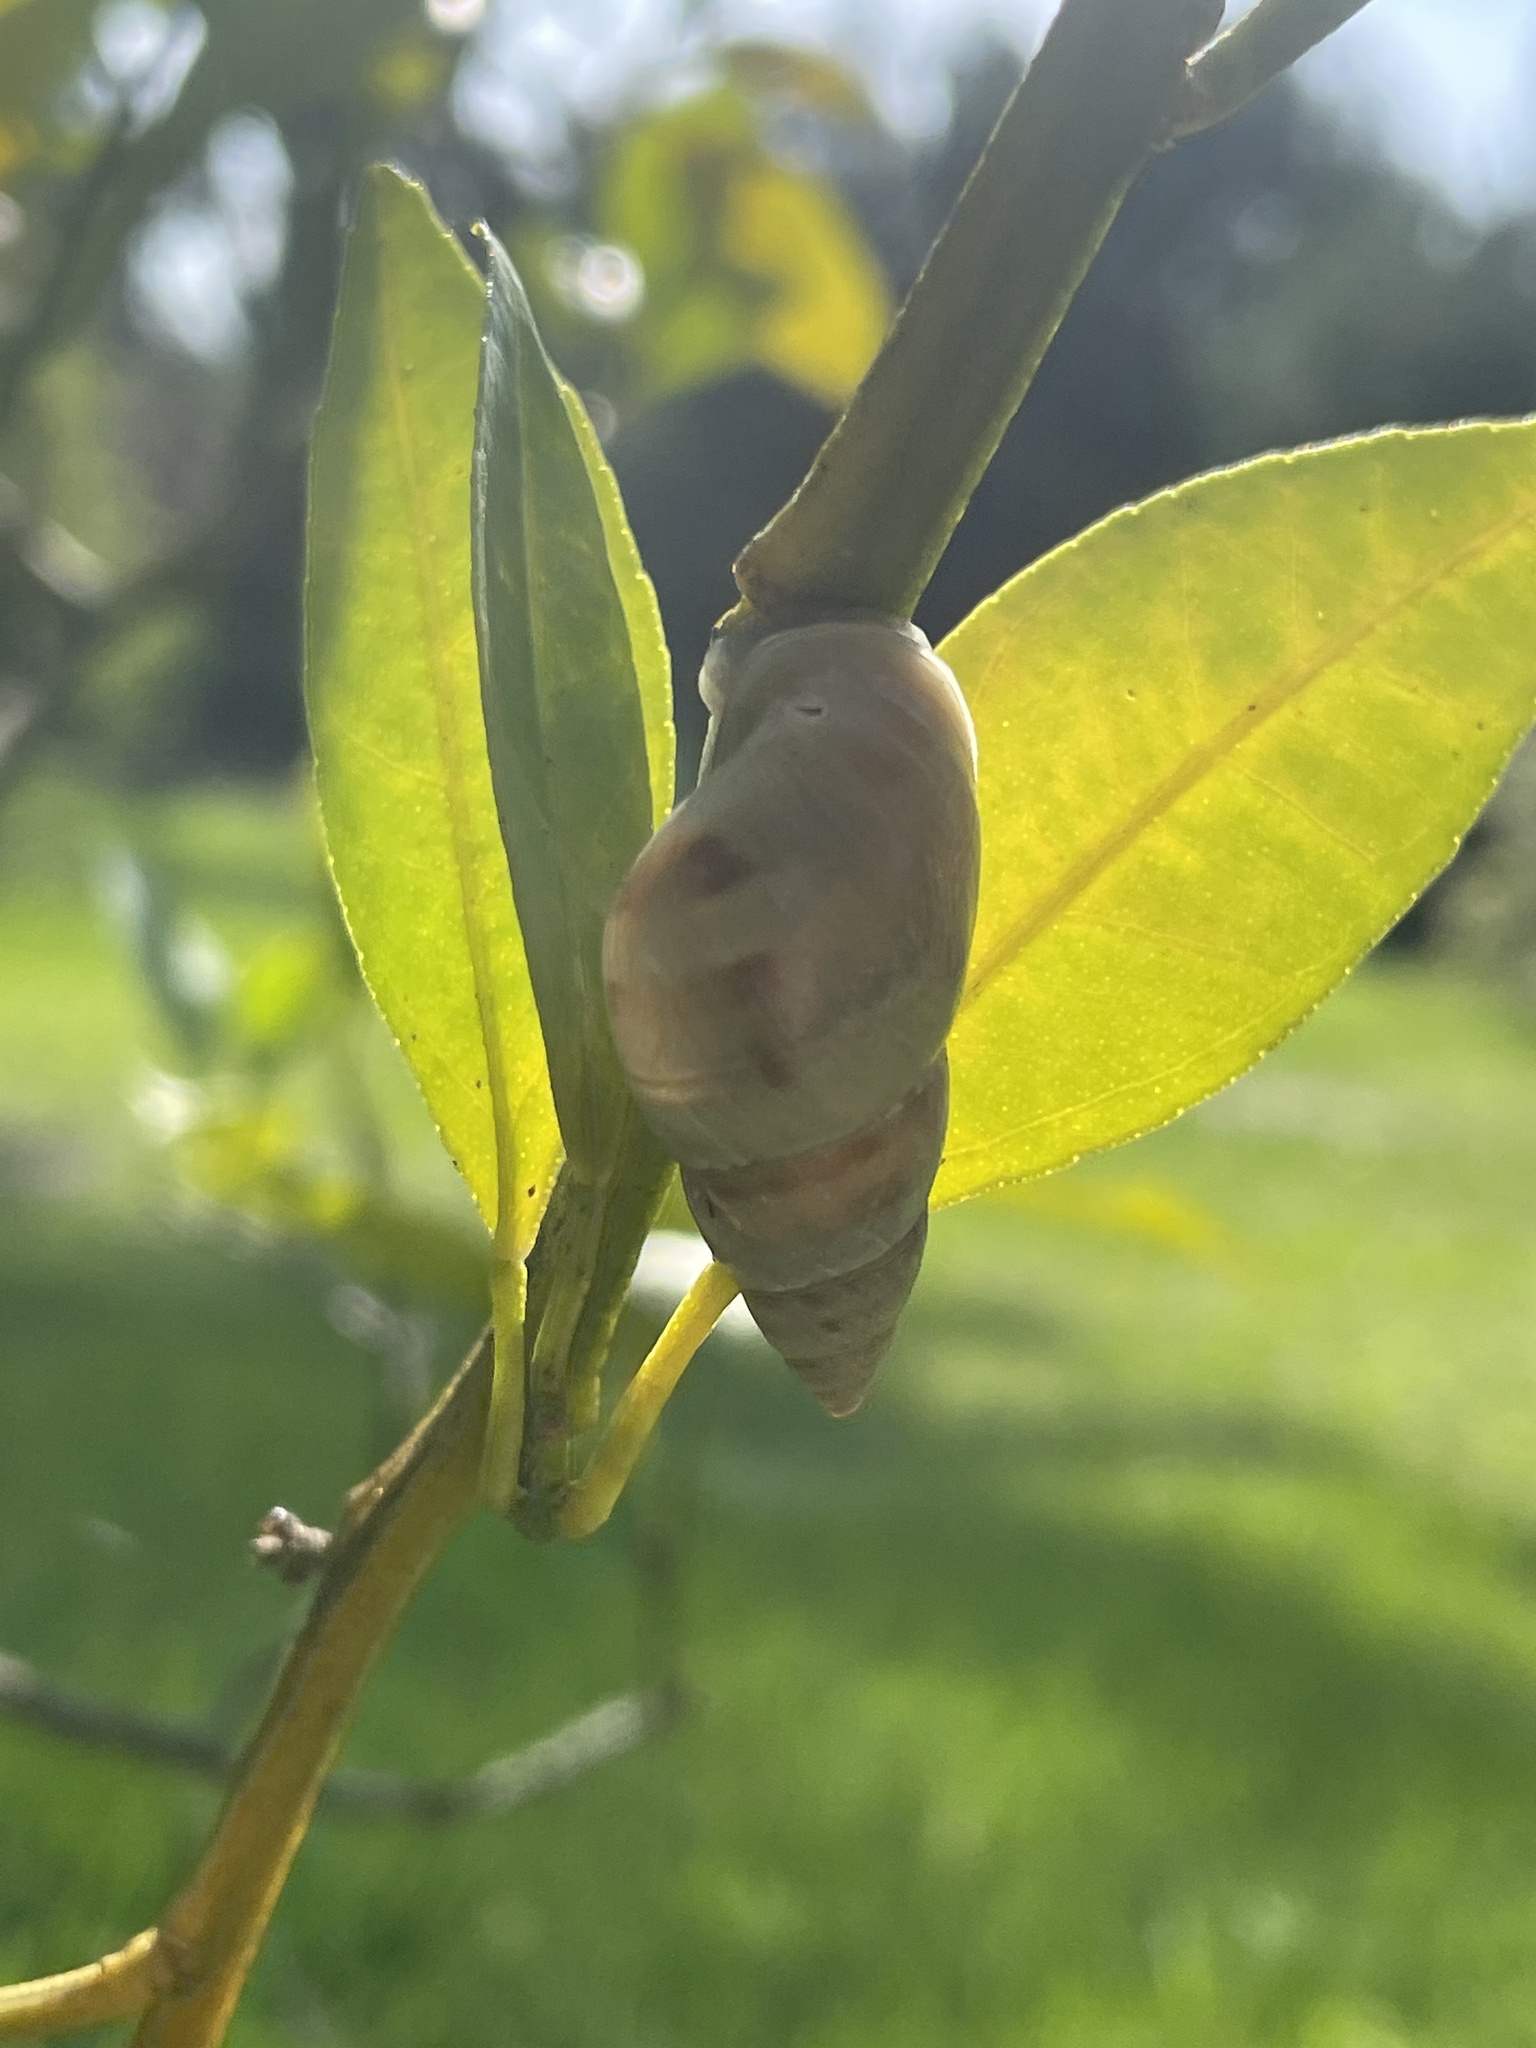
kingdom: Animalia
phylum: Mollusca
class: Gastropoda
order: Stylommatophora
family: Bulimulidae
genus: Bulimulus
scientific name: Bulimulus bonariensis
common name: Snail
